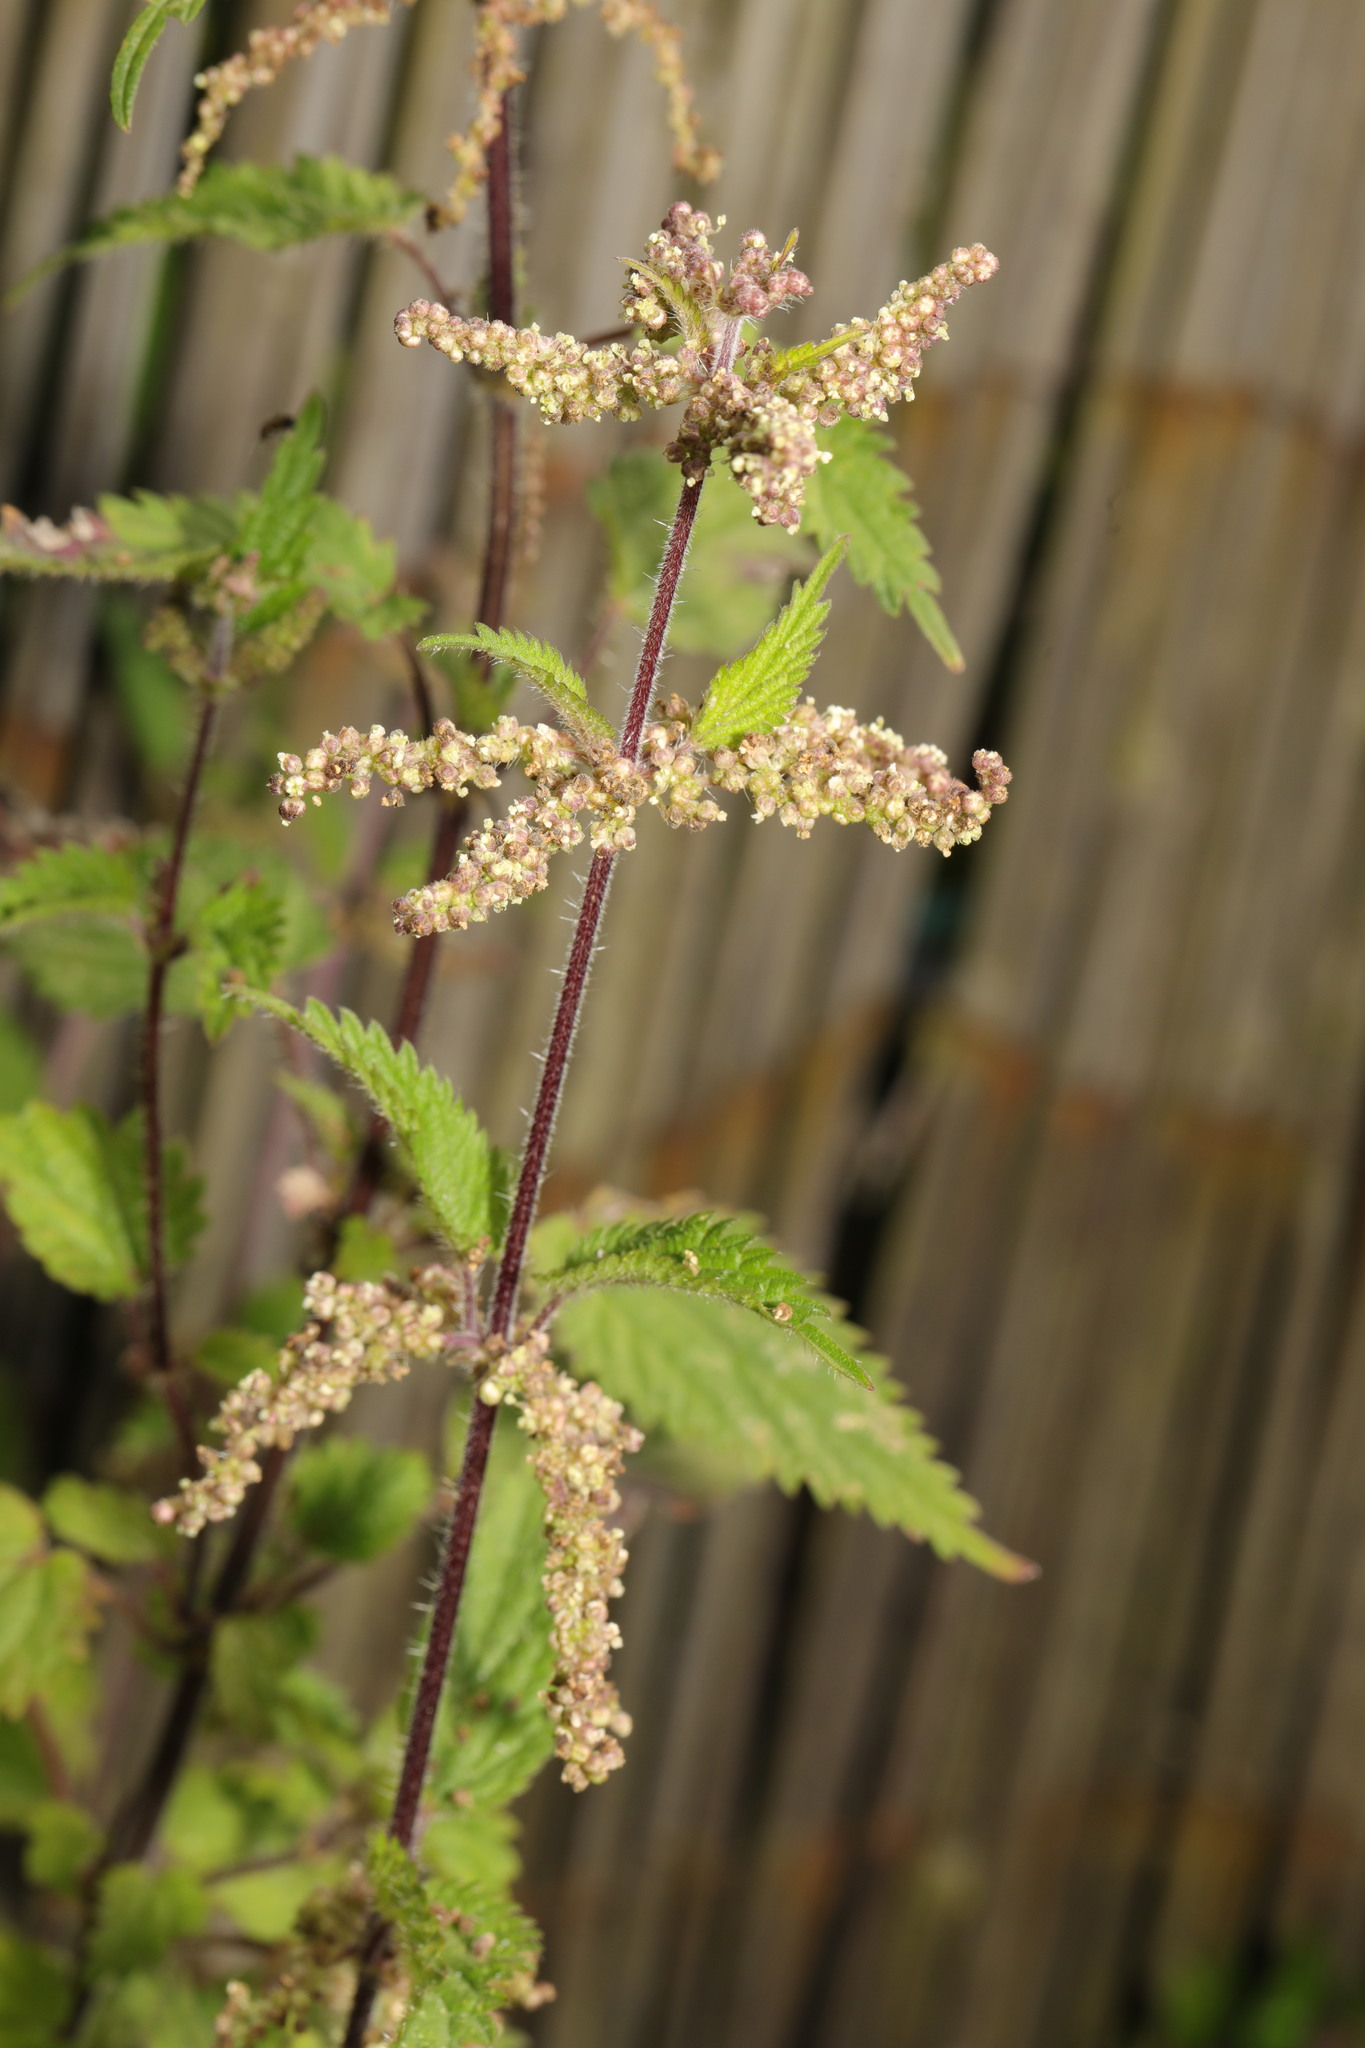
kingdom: Plantae
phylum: Tracheophyta
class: Magnoliopsida
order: Rosales
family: Urticaceae
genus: Urtica
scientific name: Urtica dioica
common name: Common nettle
